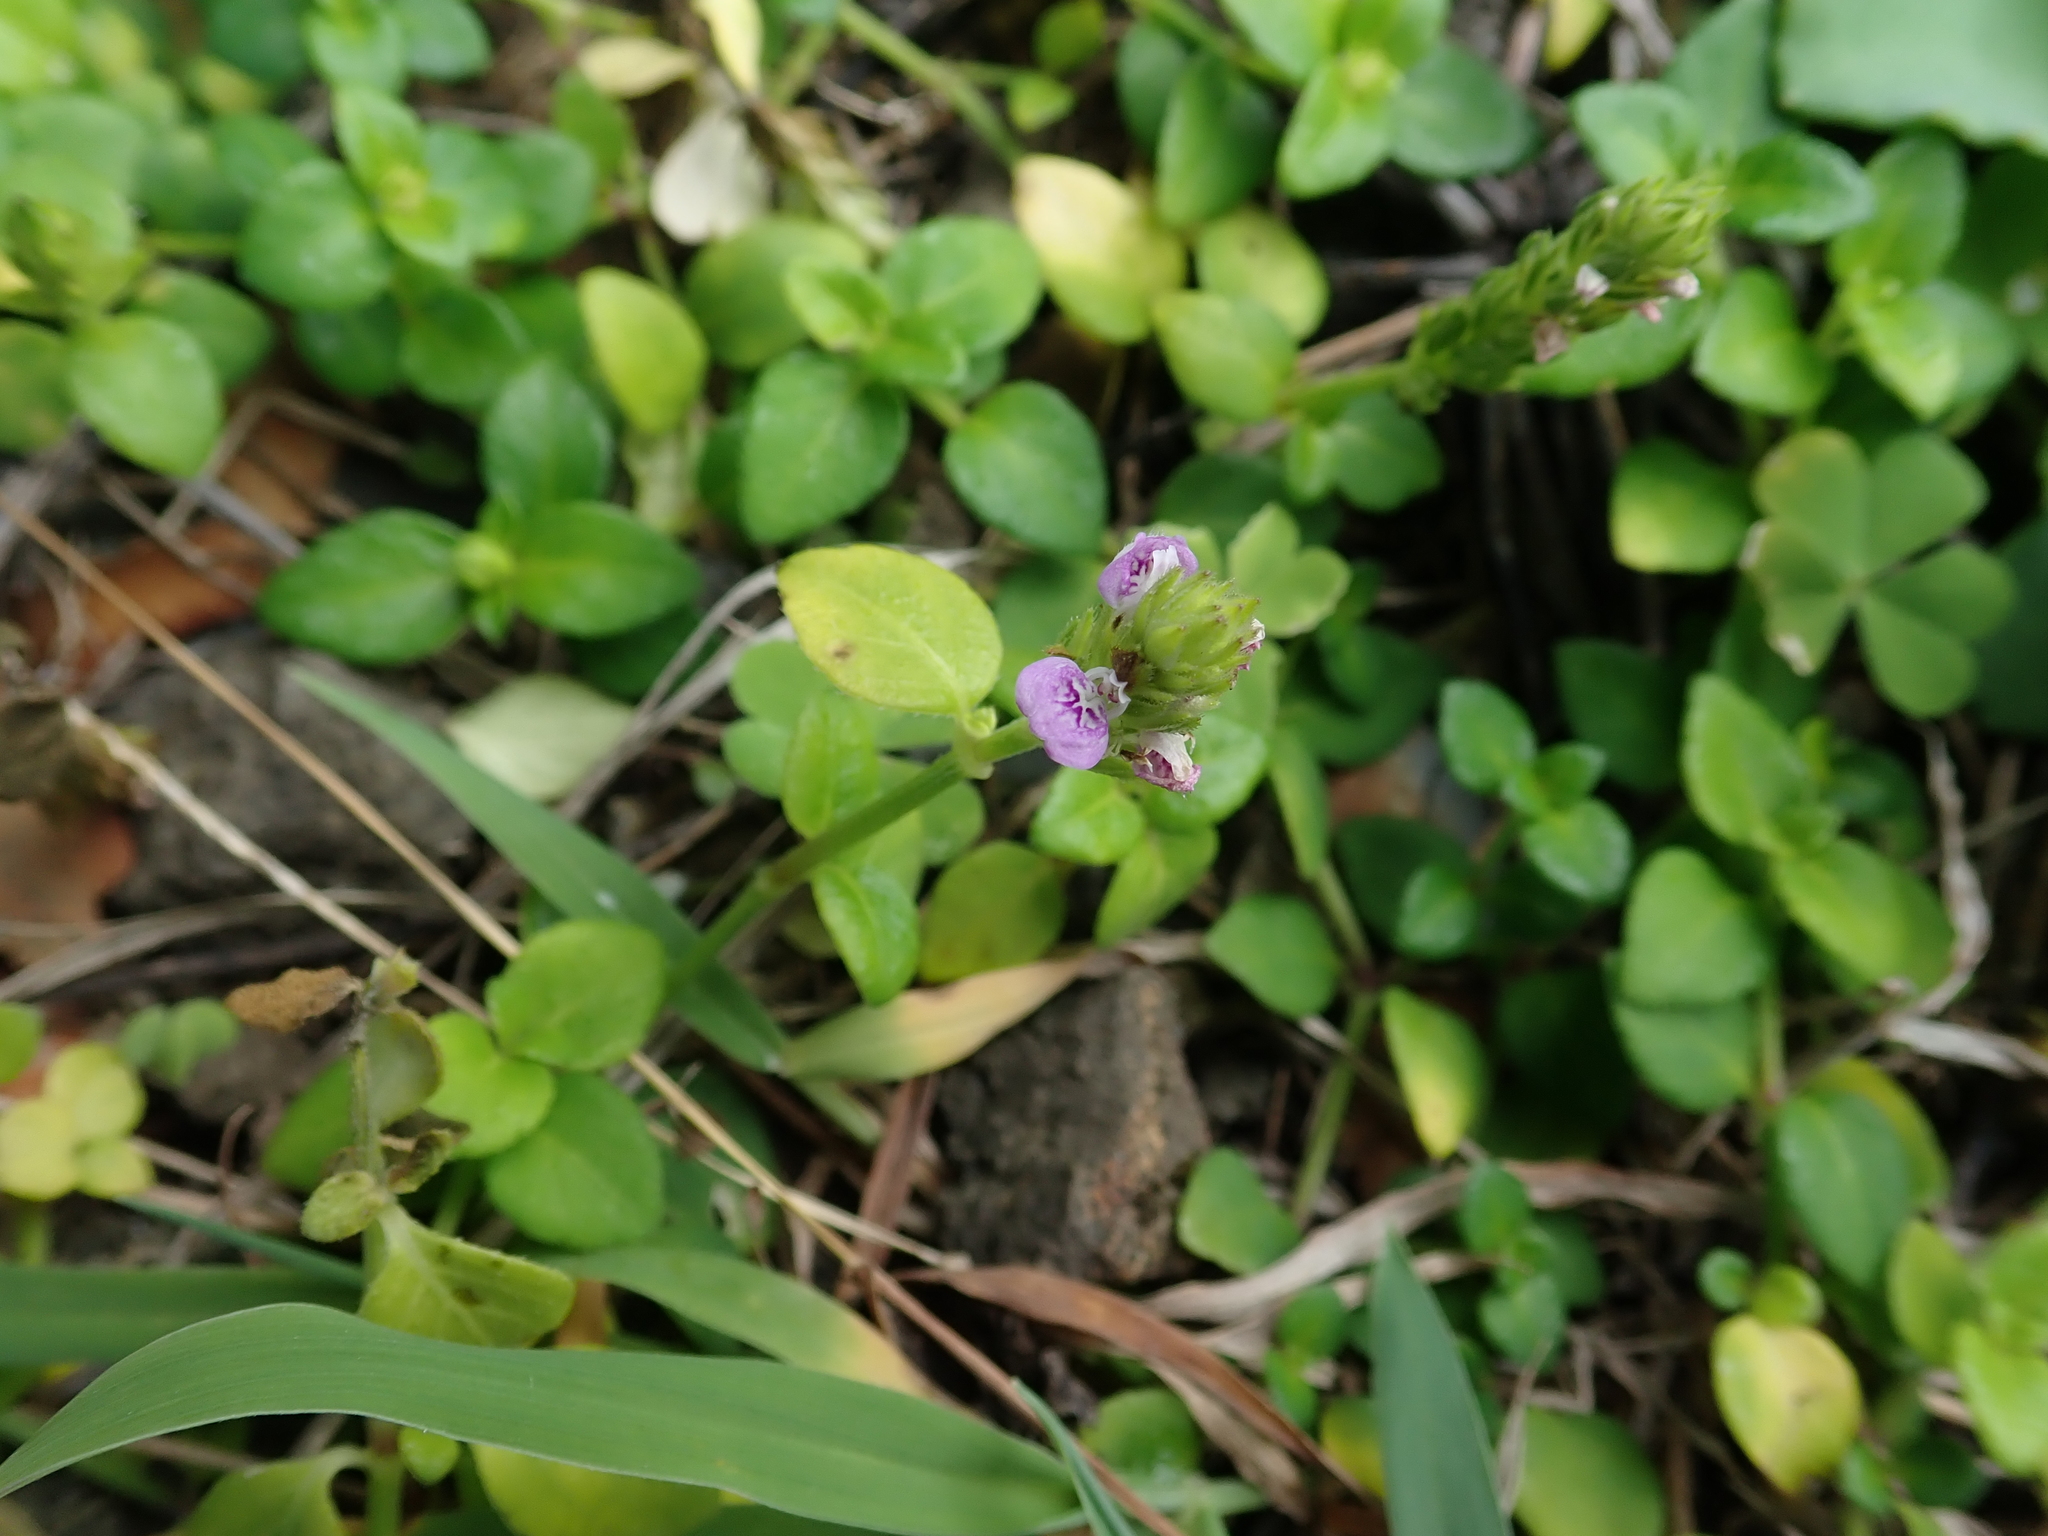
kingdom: Plantae
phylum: Tracheophyta
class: Magnoliopsida
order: Lamiales
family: Acanthaceae
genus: Rostellularia
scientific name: Rostellularia hayatae
